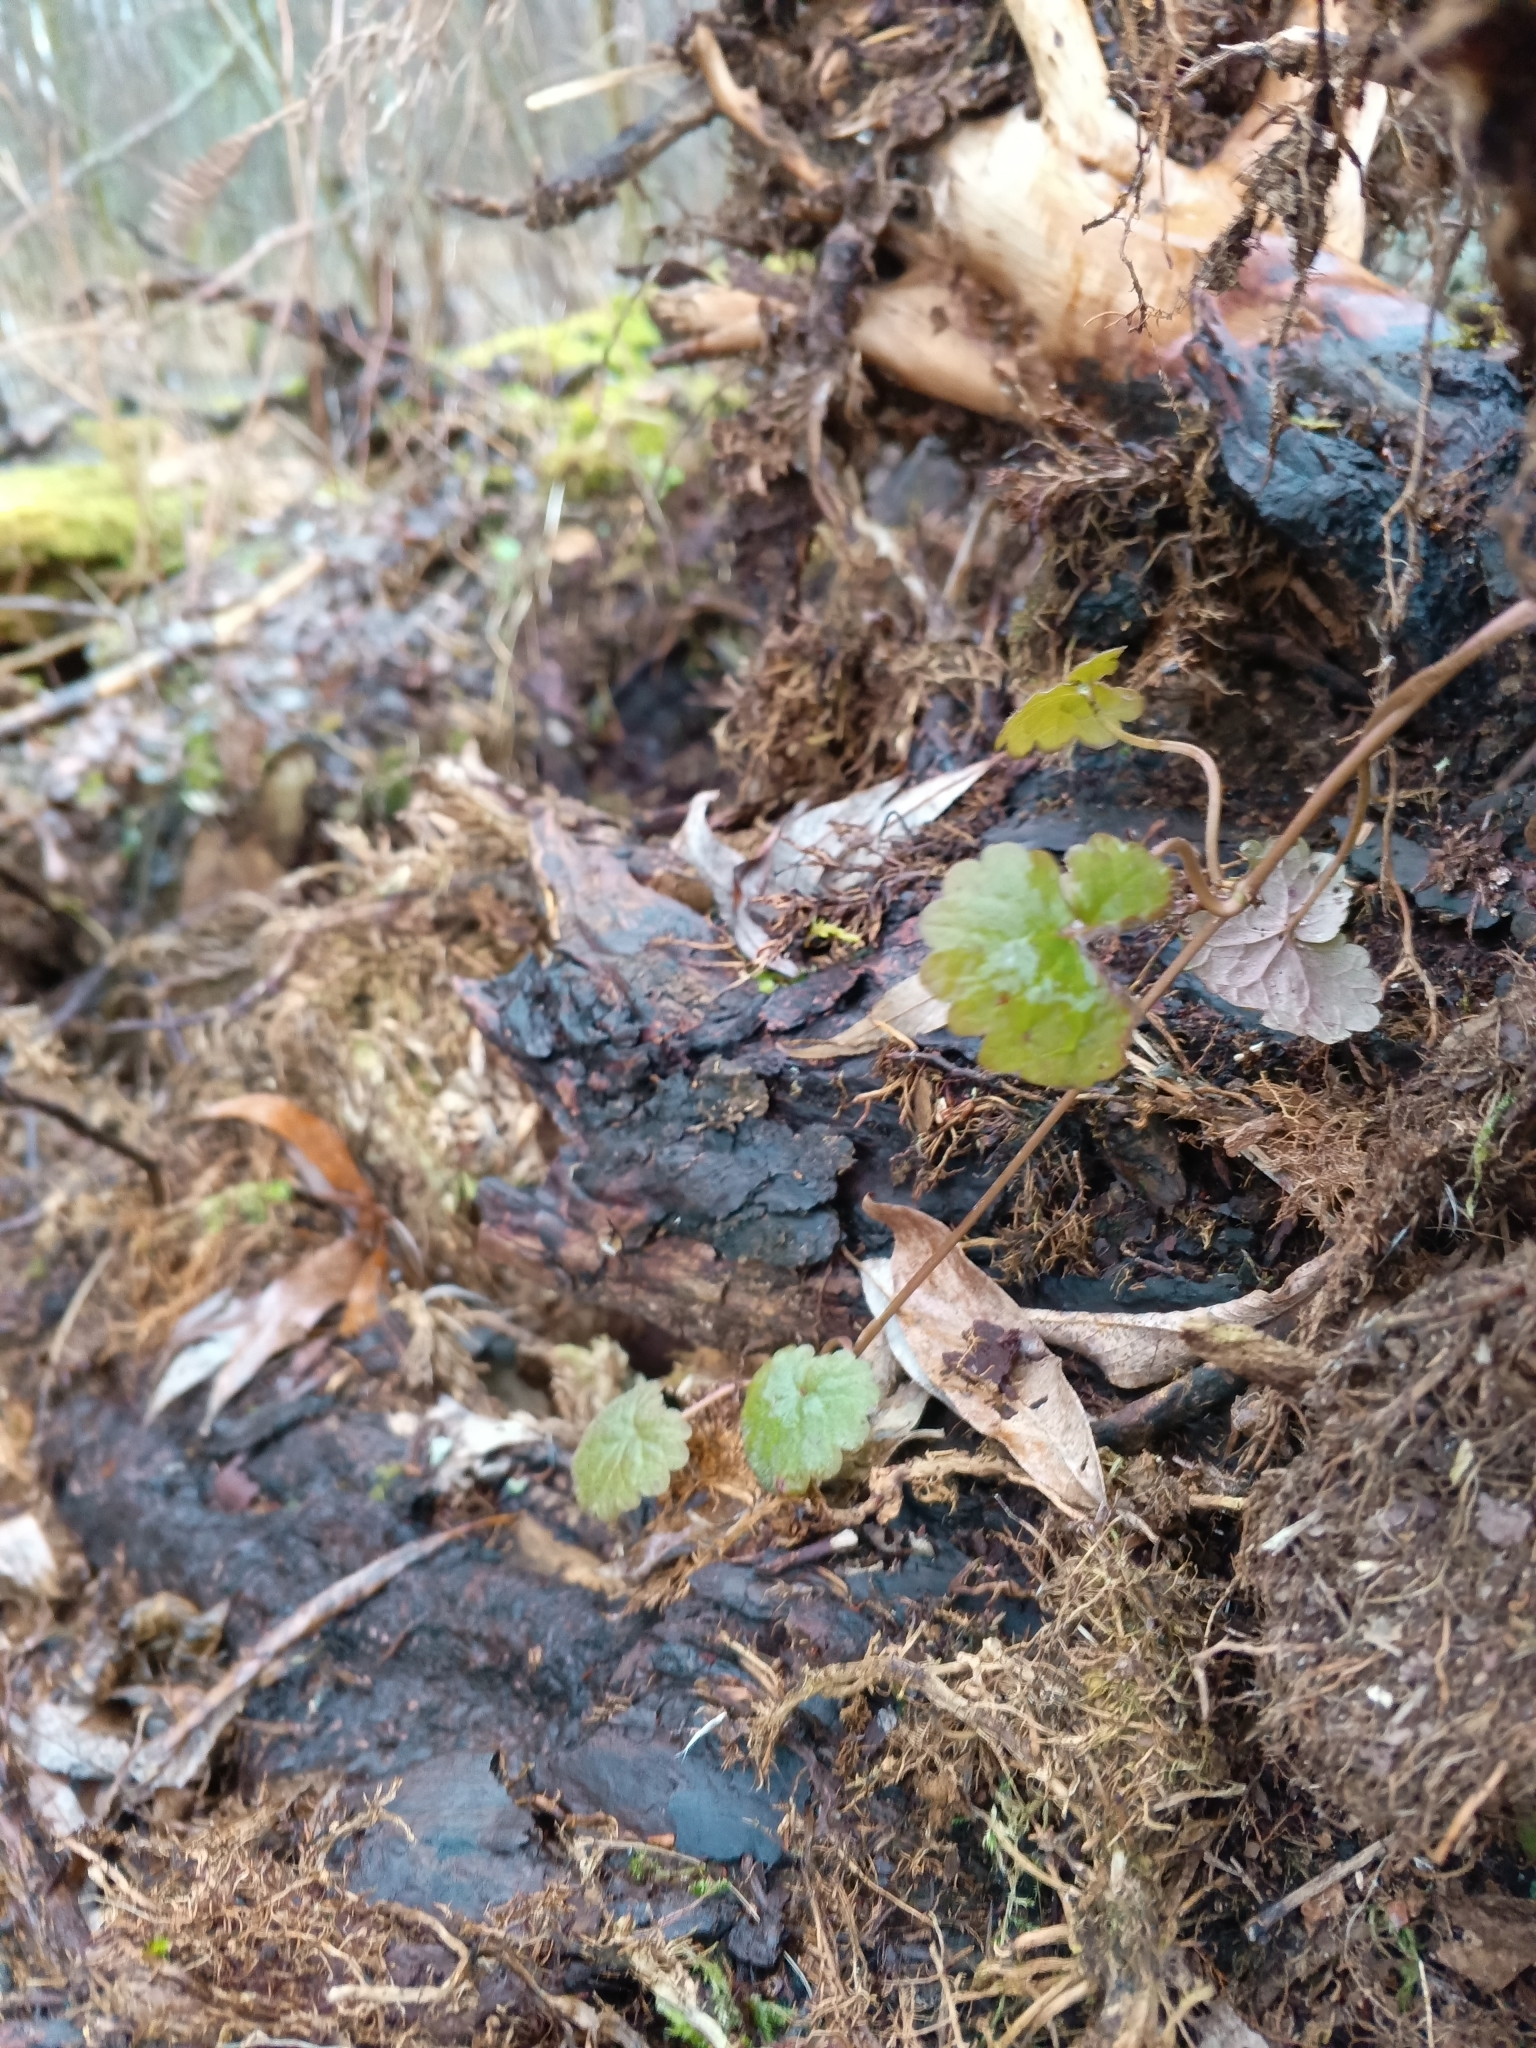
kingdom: Plantae
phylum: Tracheophyta
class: Magnoliopsida
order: Lamiales
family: Lamiaceae
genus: Glechoma
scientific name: Glechoma hederacea
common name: Ground ivy
